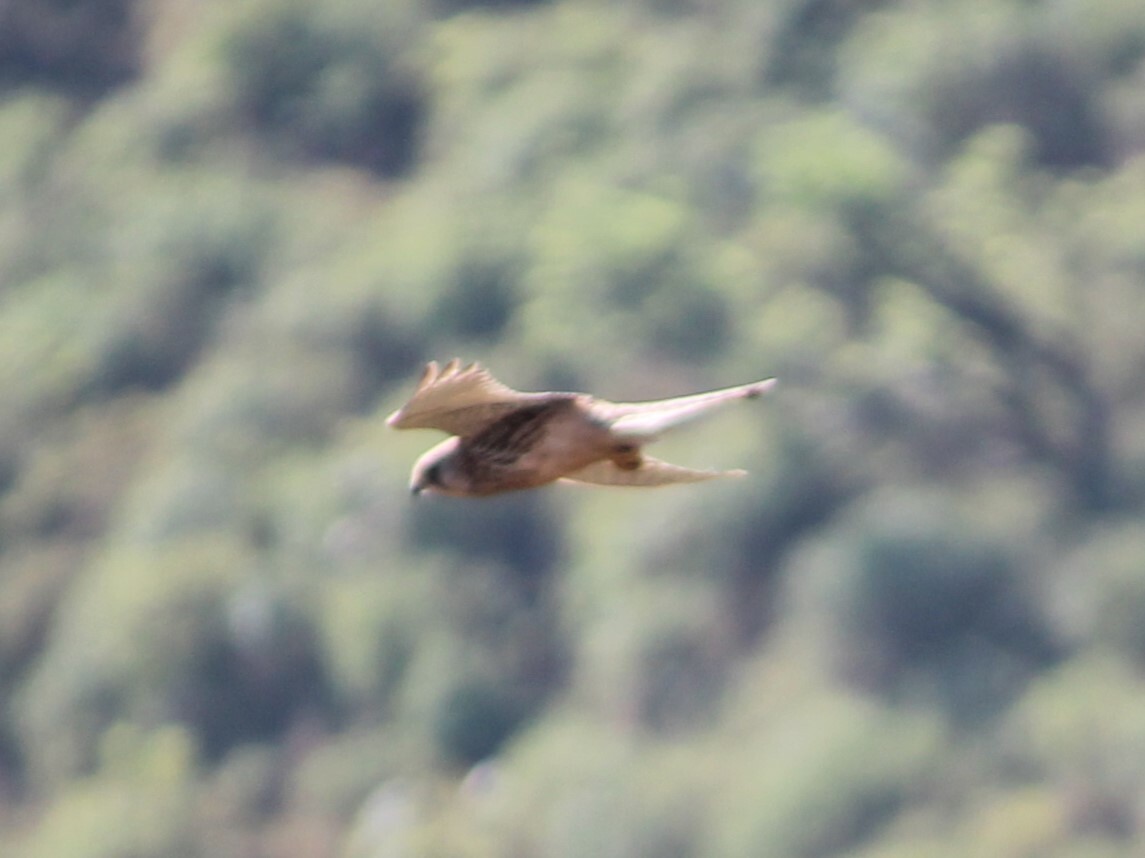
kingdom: Animalia
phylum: Chordata
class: Aves
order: Falconiformes
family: Falconidae
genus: Falco
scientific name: Falco tinnunculus
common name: Common kestrel
